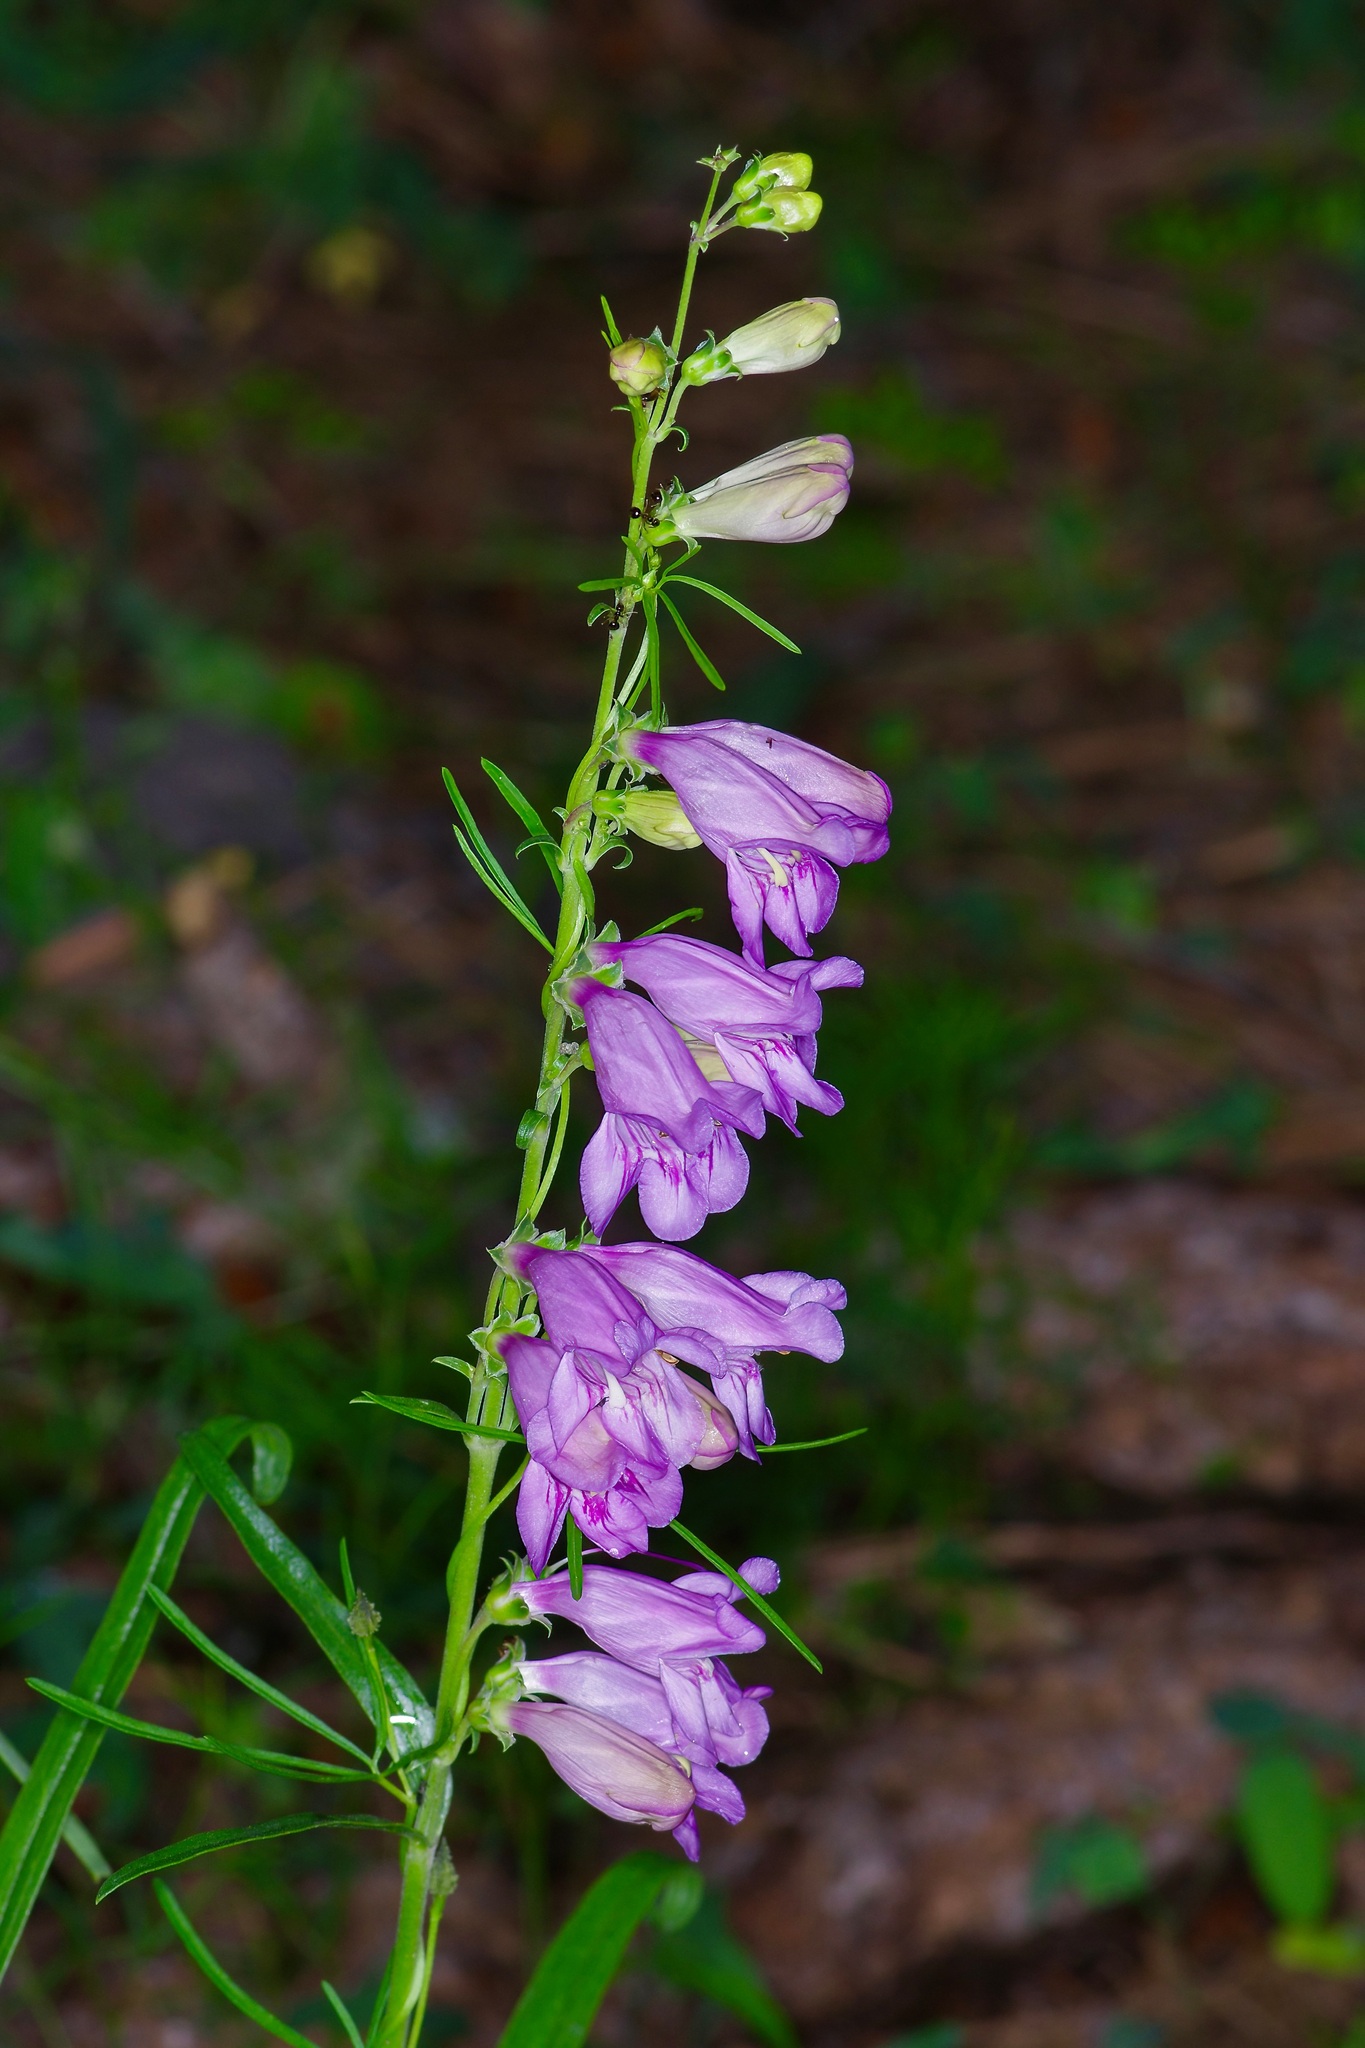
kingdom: Plantae
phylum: Tracheophyta
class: Magnoliopsida
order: Lamiales
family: Plantaginaceae
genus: Penstemon
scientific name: Penstemon virgatus
